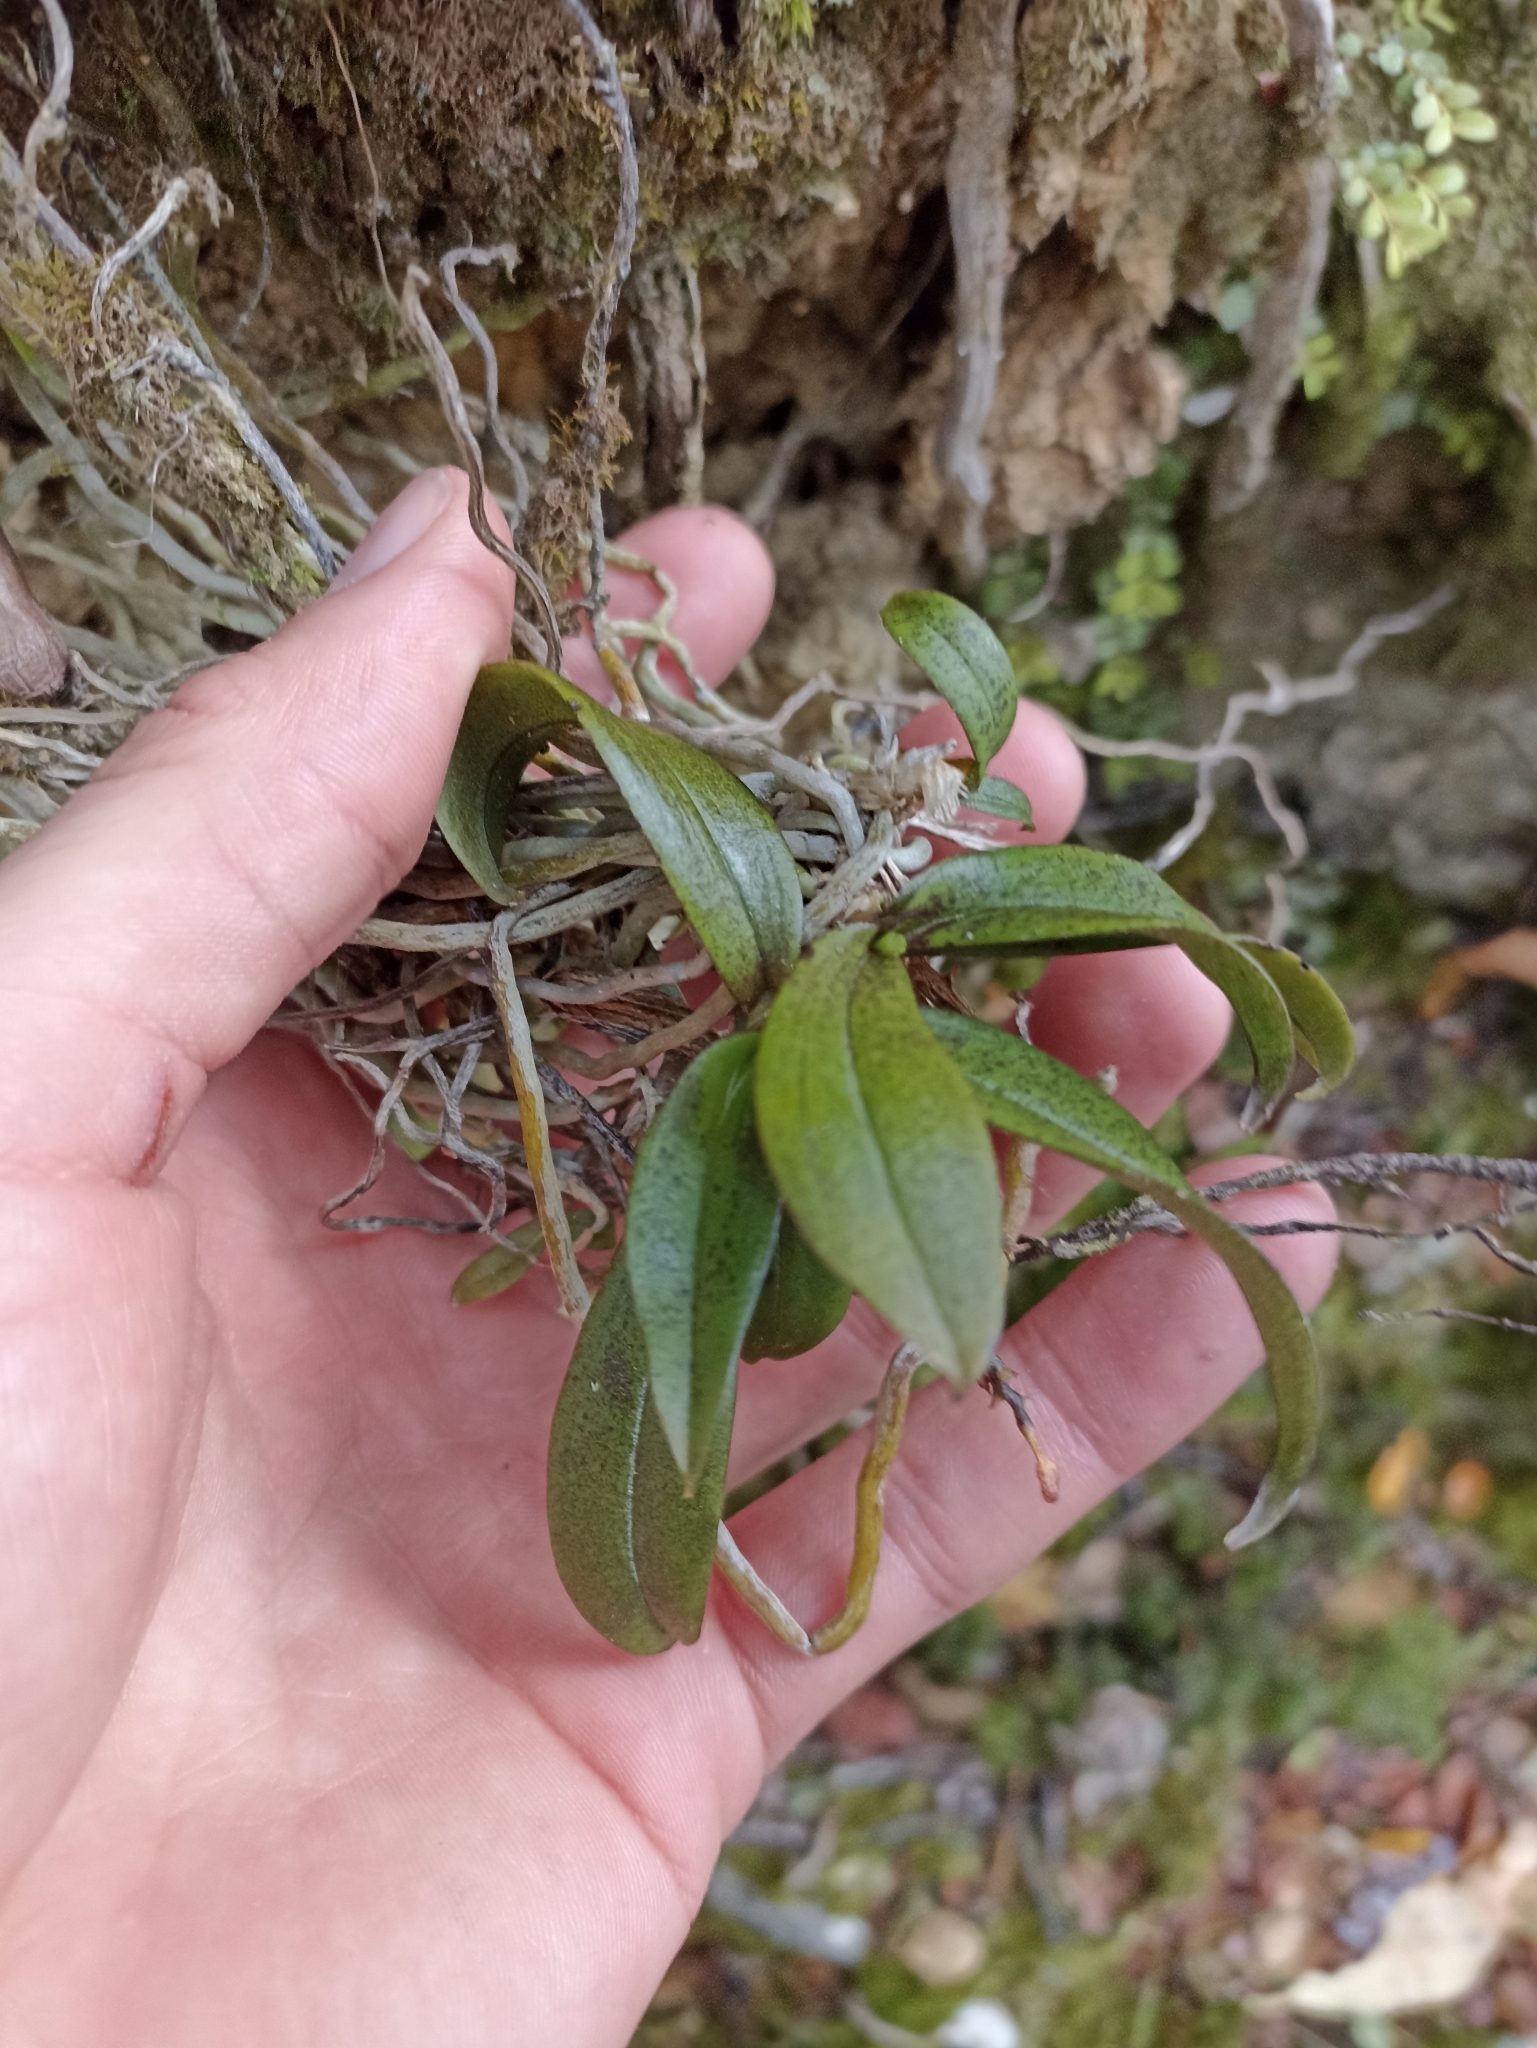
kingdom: Plantae
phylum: Tracheophyta
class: Liliopsida
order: Asparagales
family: Orchidaceae
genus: Drymoanthus
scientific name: Drymoanthus flavus
